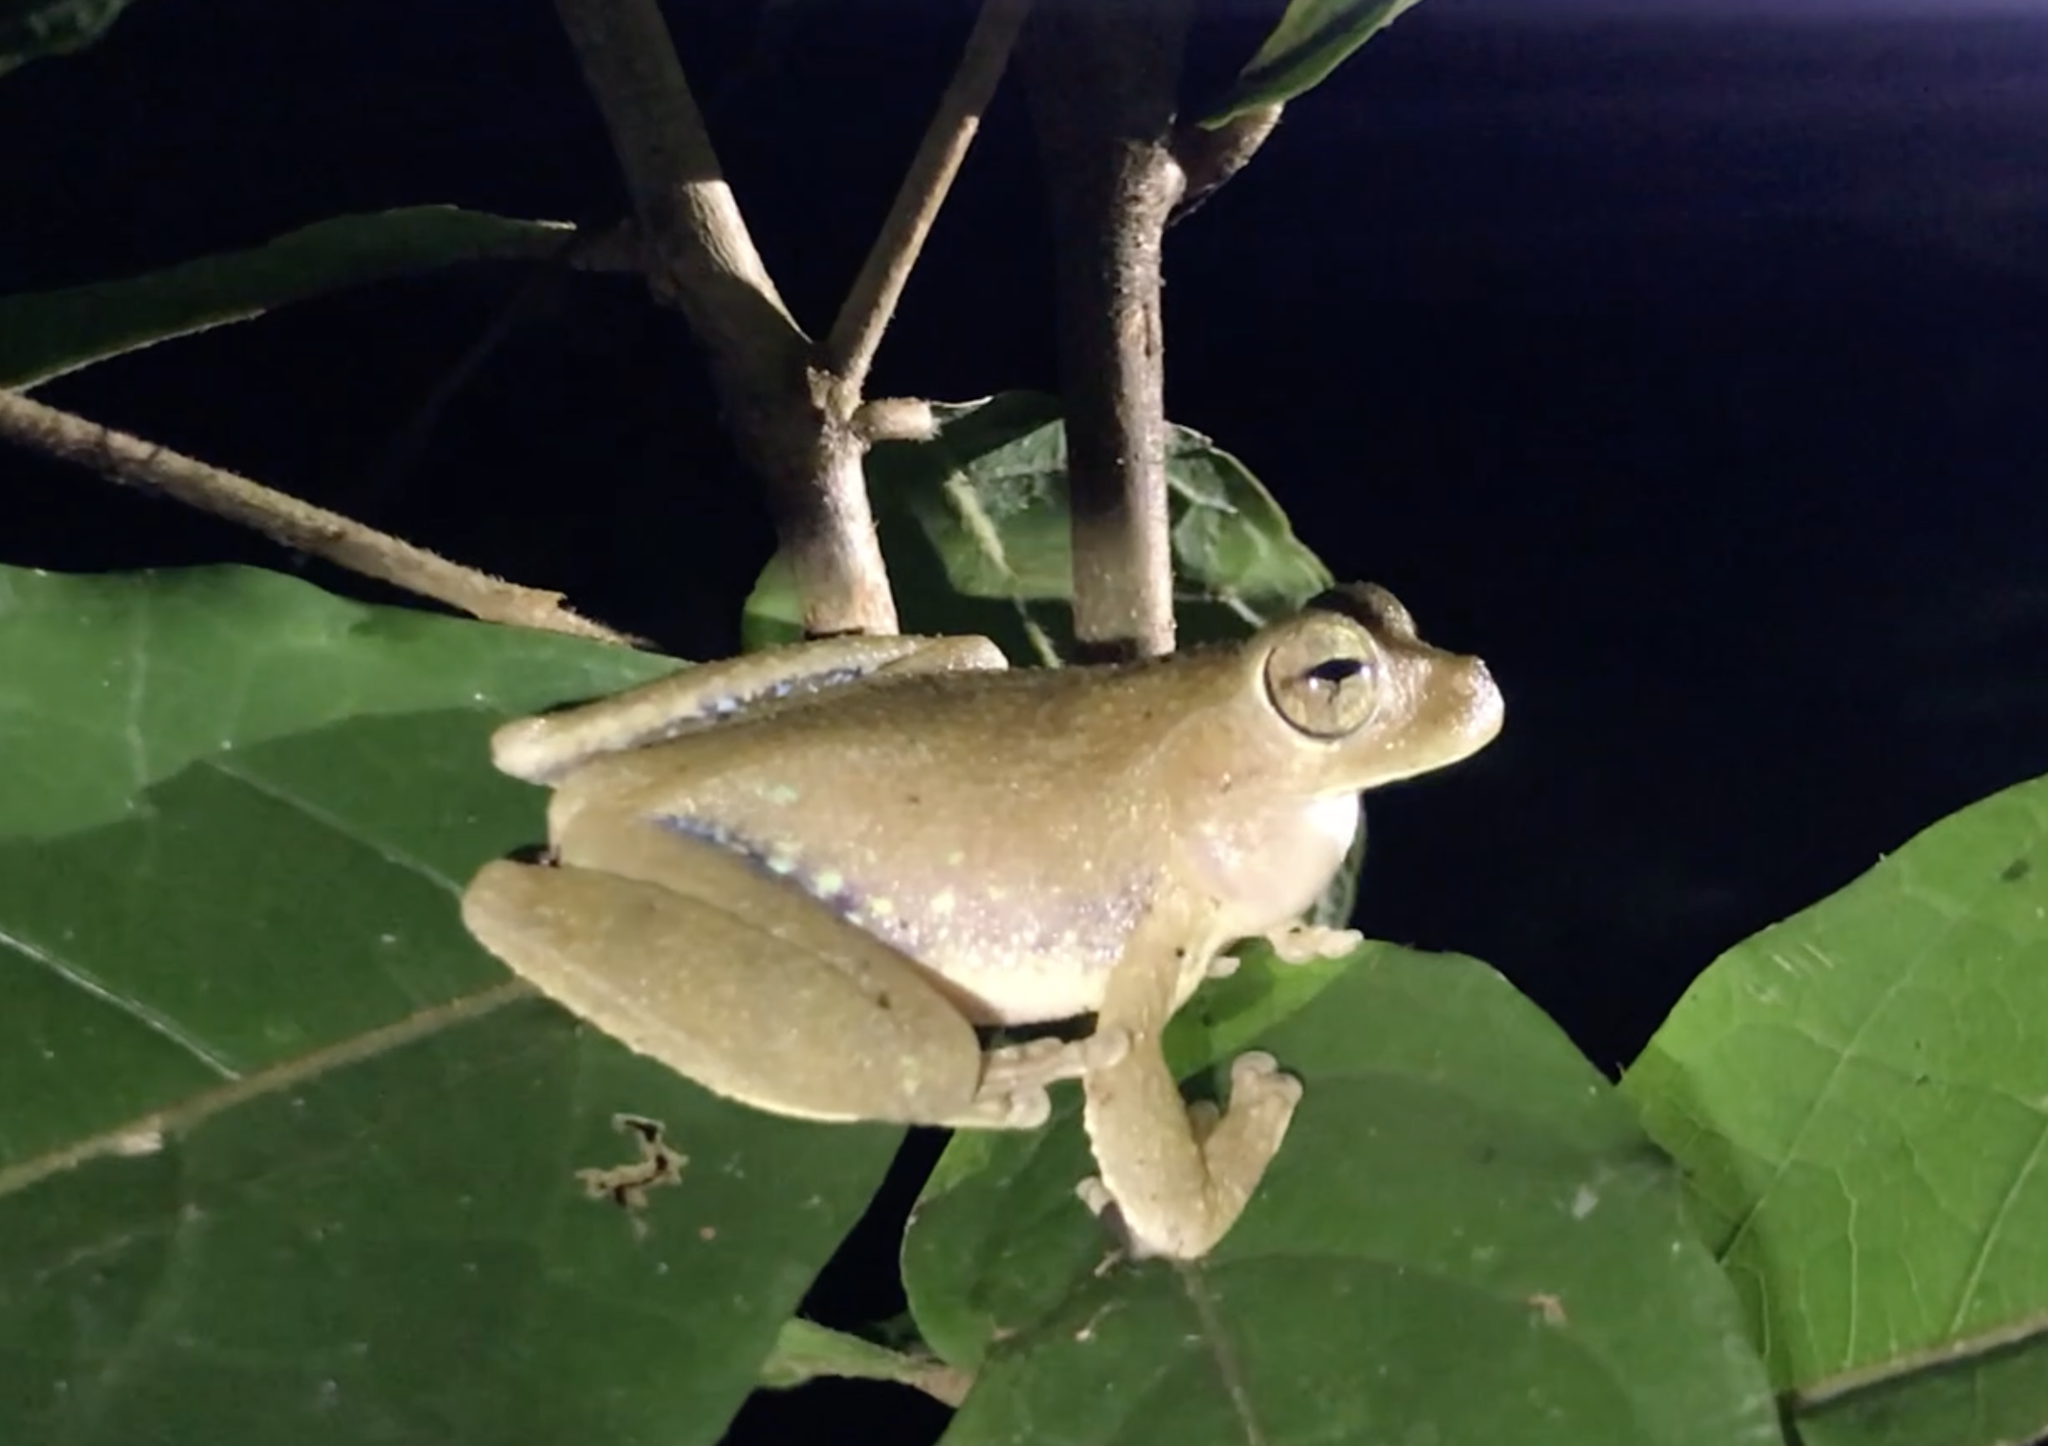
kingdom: Animalia
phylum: Chordata
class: Amphibia
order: Anura
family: Hylidae
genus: Smilisca
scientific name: Smilisca sila
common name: Panama cross-banded treefrog
